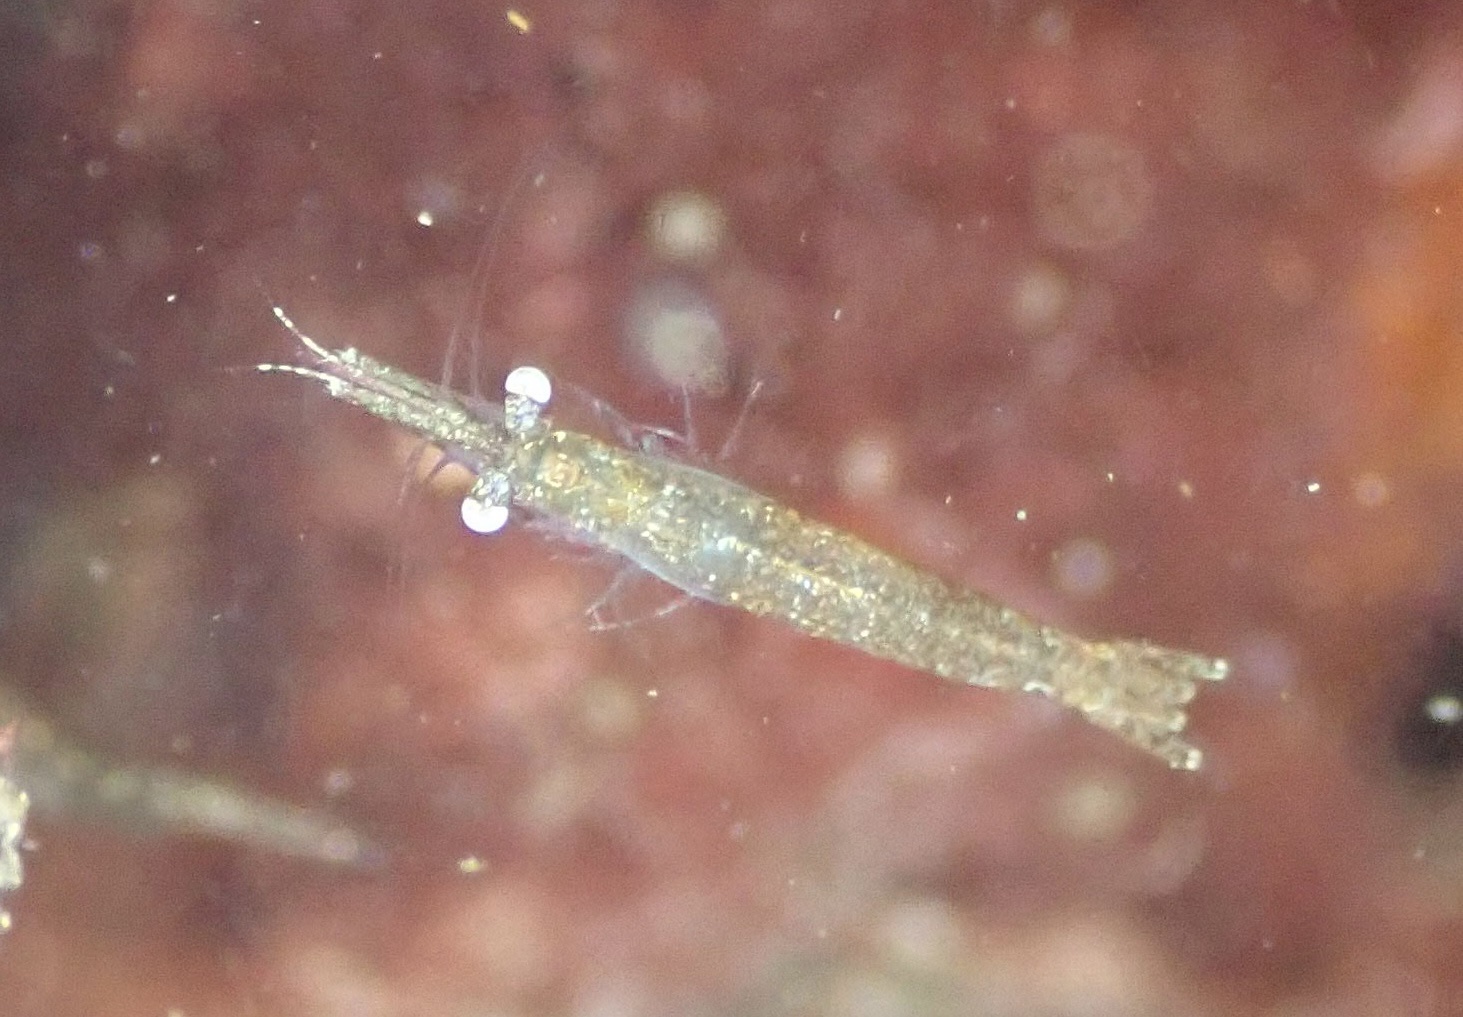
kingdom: Animalia
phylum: Arthropoda
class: Malacostraca
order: Mysida
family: Mysidae
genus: Praunus
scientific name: Praunus flexuosus
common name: Chameleon shrimp
